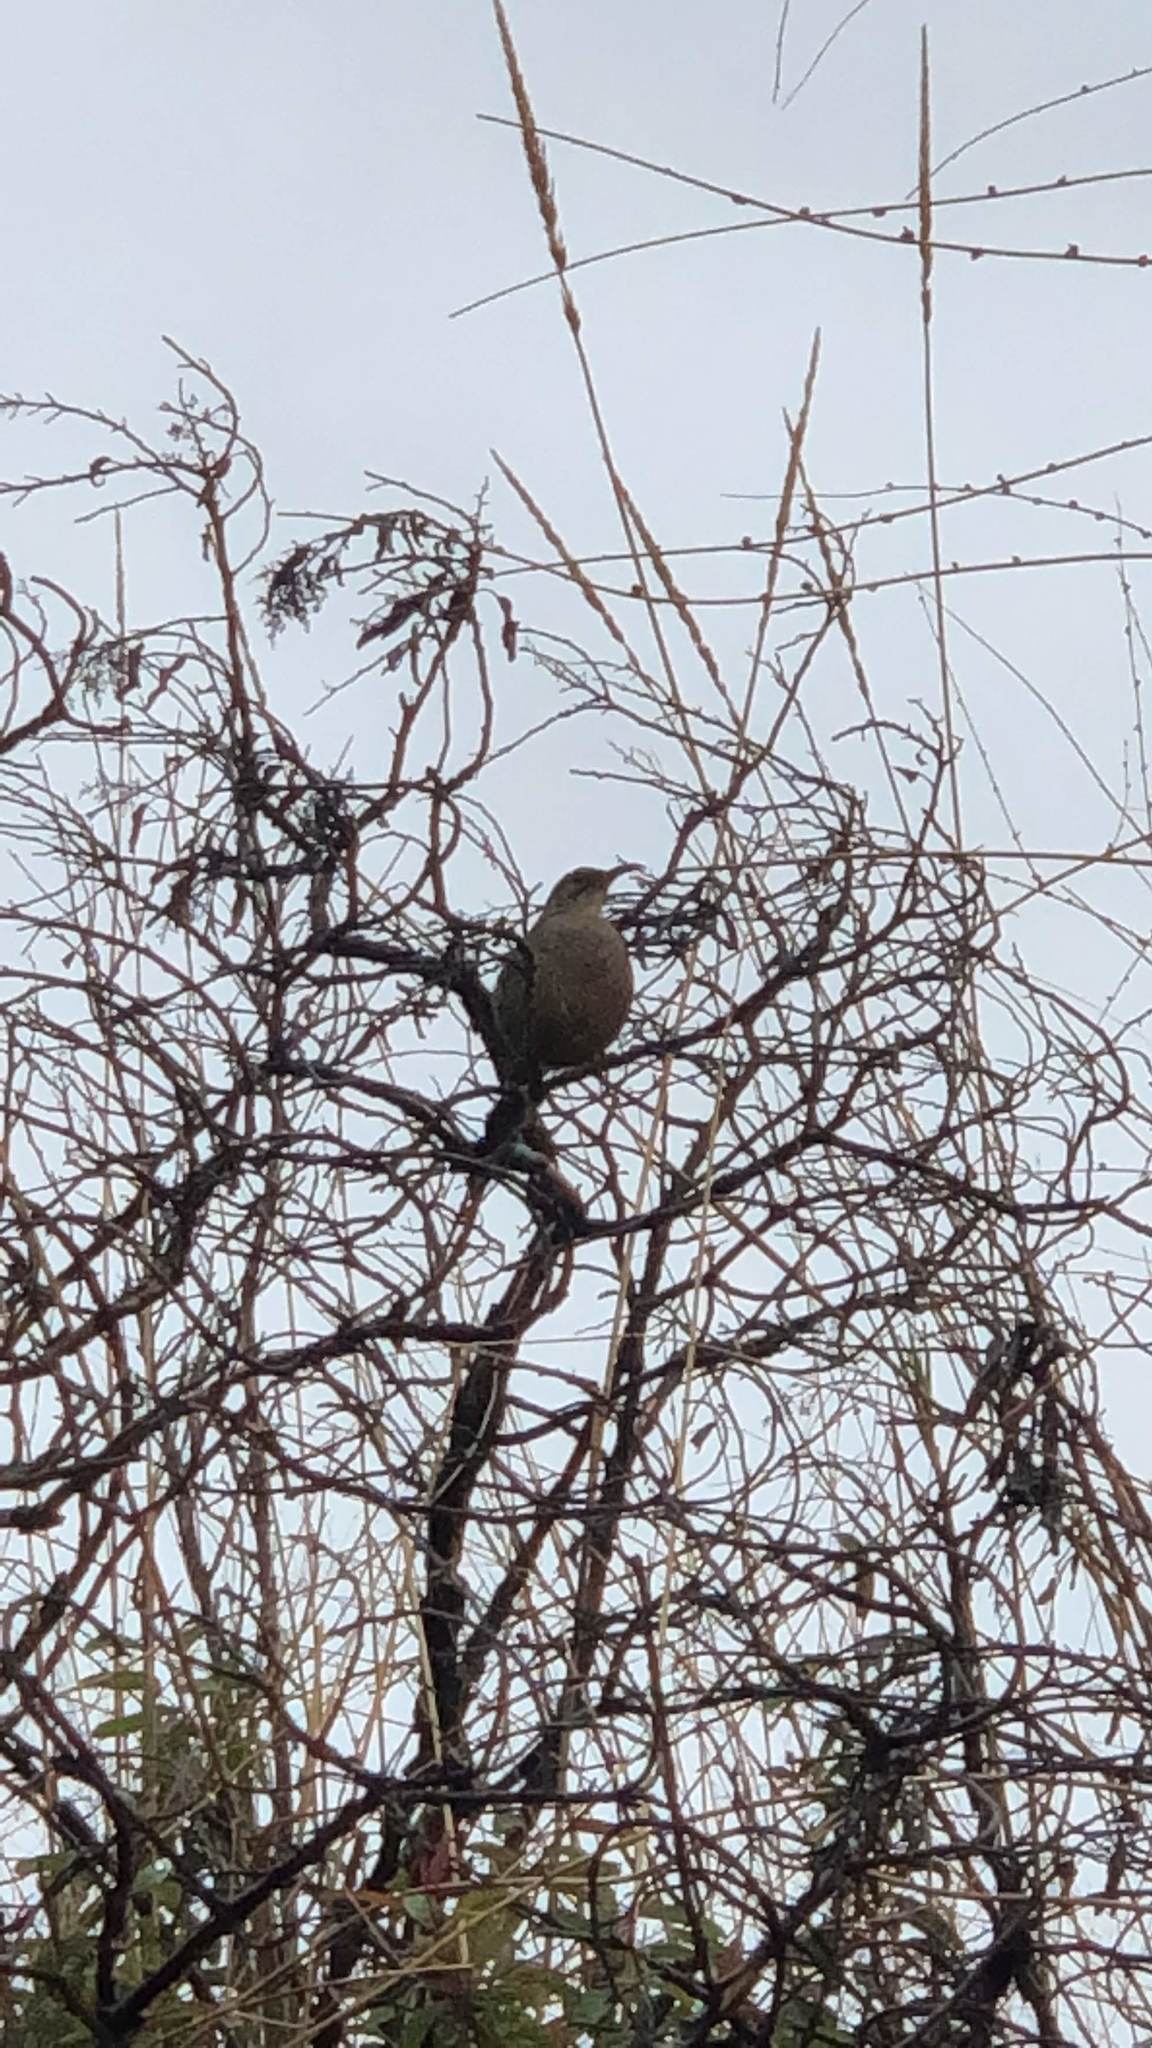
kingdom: Animalia
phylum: Chordata
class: Aves
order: Passeriformes
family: Mimidae
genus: Toxostoma
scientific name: Toxostoma redivivum
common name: California thrasher
